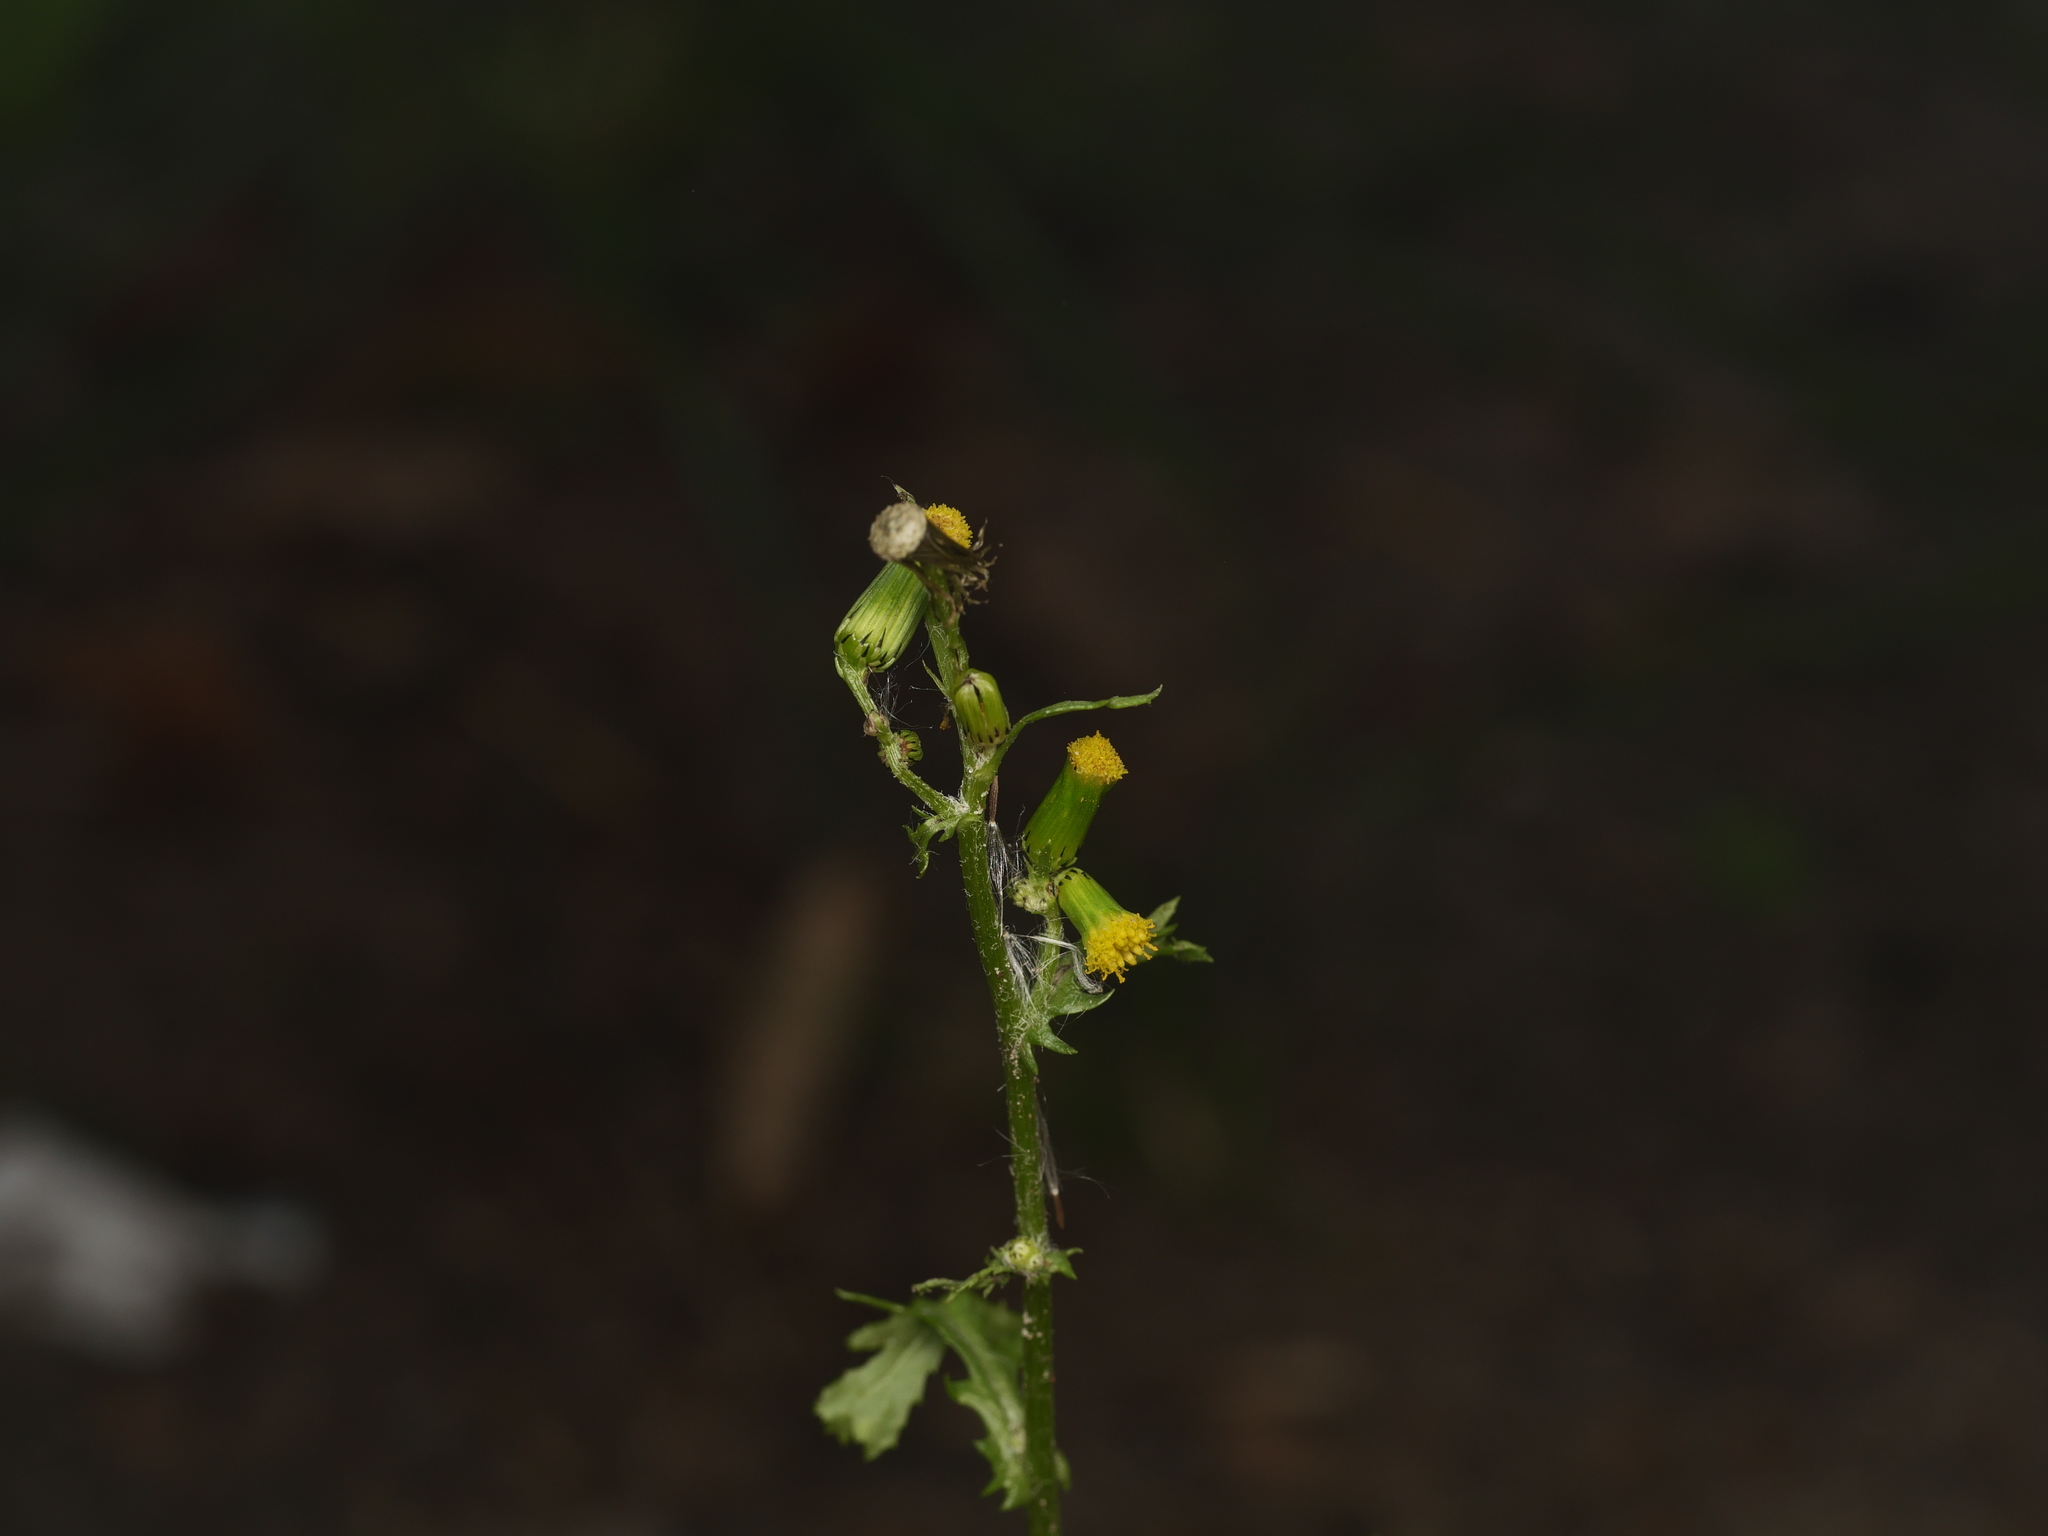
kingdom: Plantae
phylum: Tracheophyta
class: Magnoliopsida
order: Asterales
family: Asteraceae
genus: Senecio
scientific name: Senecio vulgaris
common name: Old-man-in-the-spring
